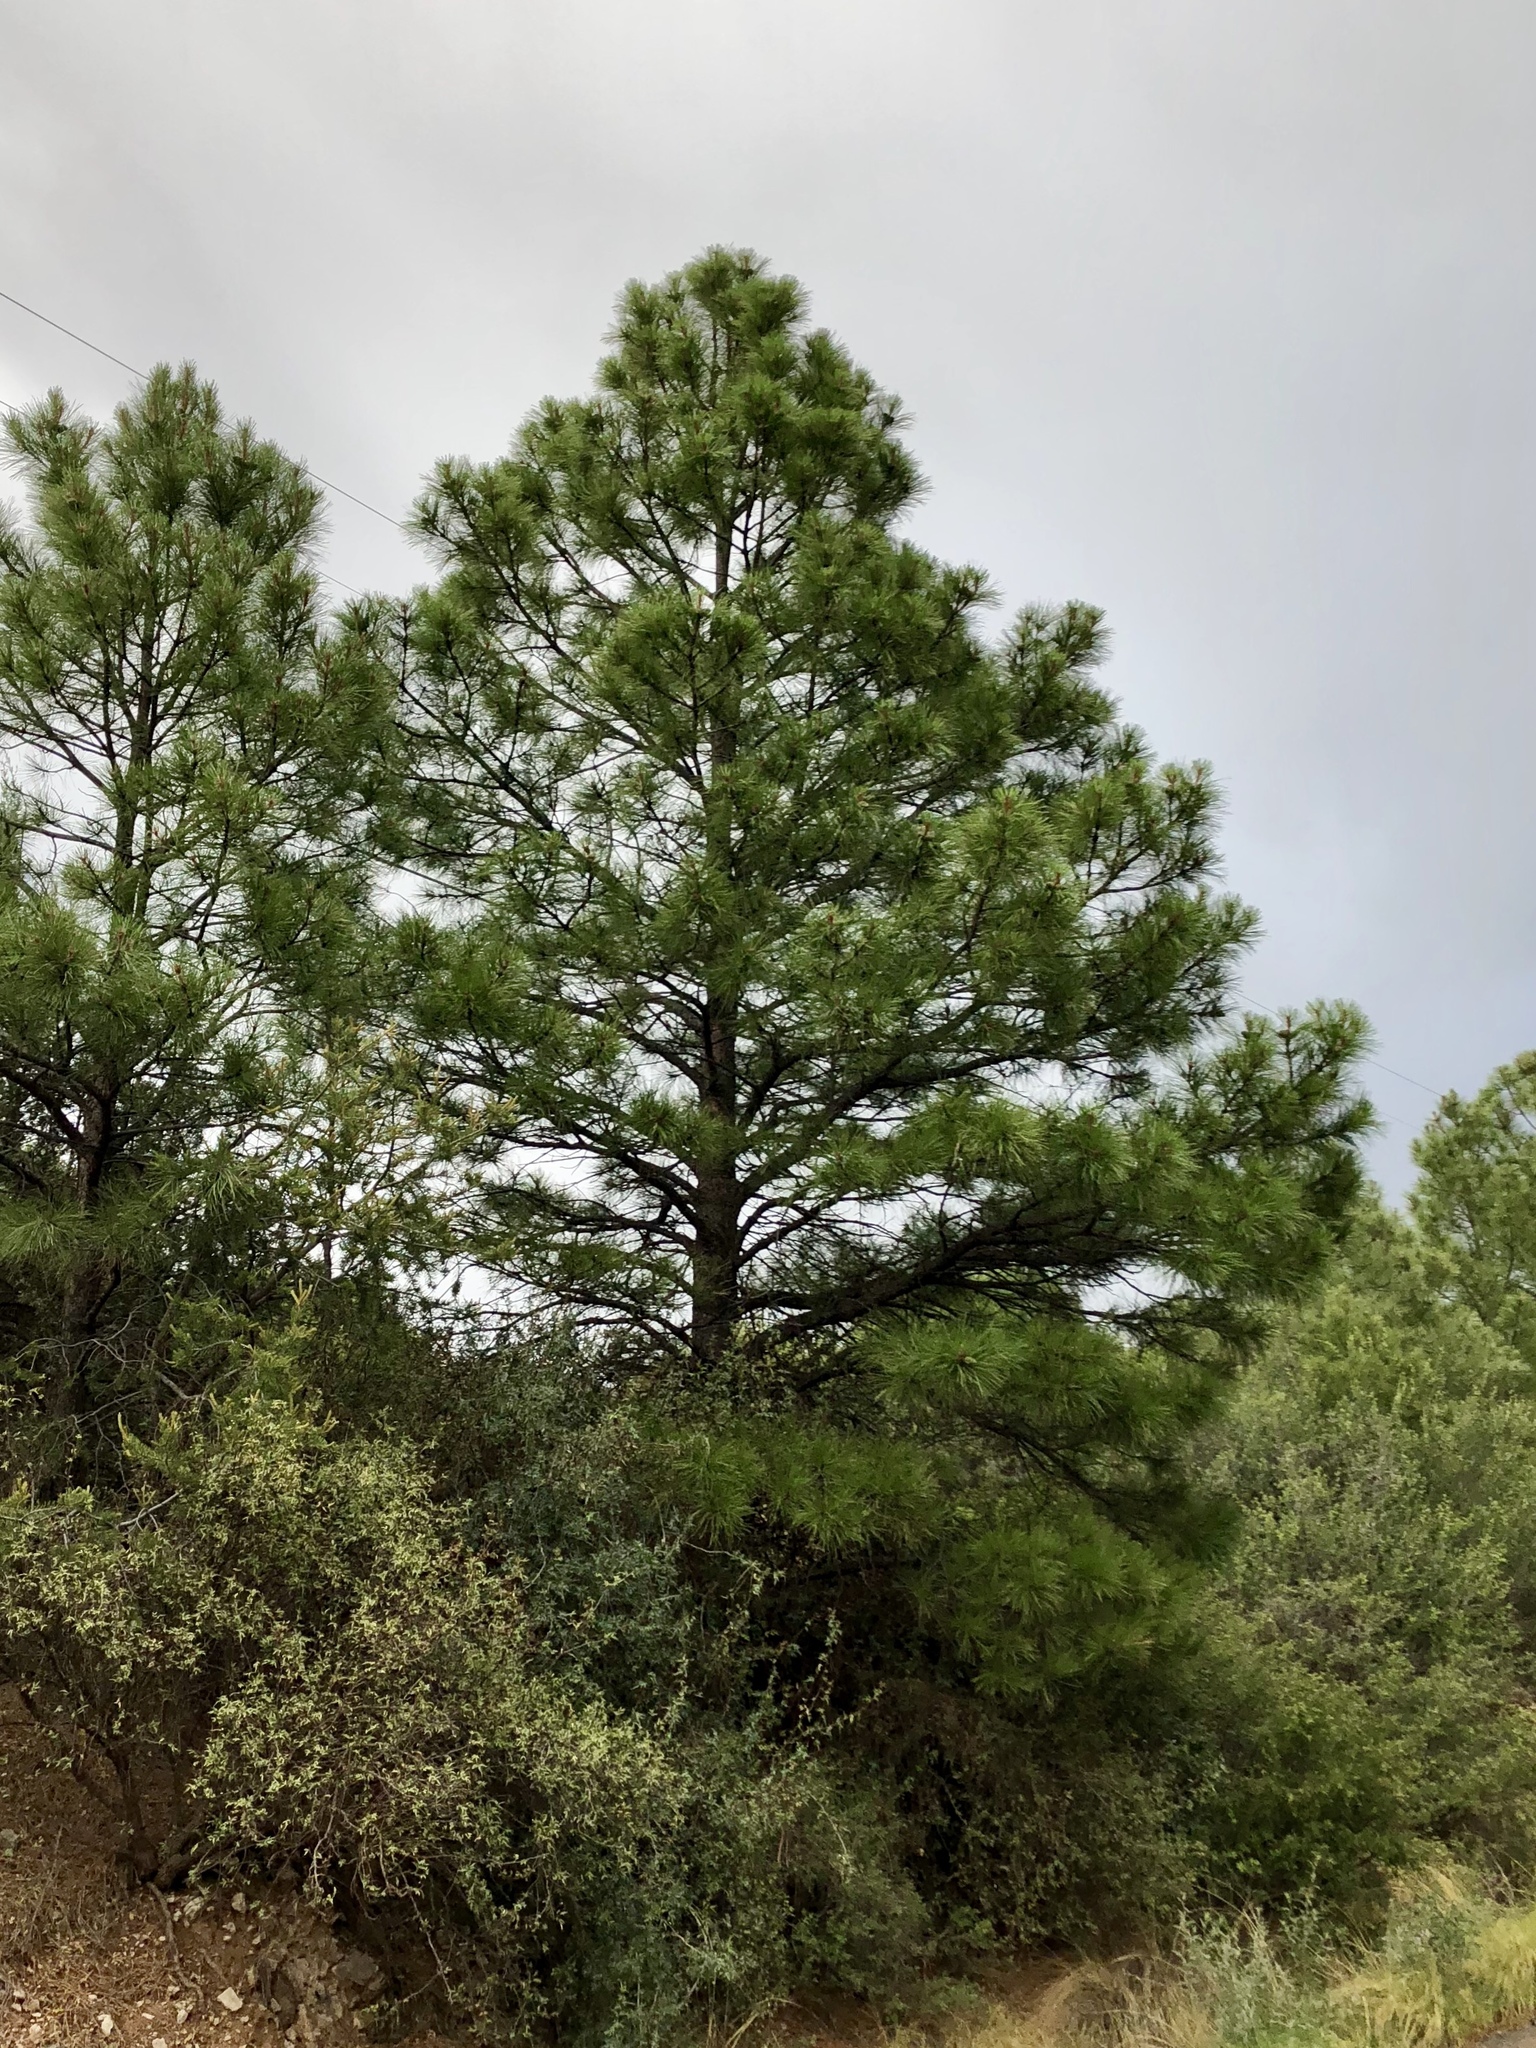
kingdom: Plantae
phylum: Tracheophyta
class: Pinopsida
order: Pinales
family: Pinaceae
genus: Pinus
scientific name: Pinus ponderosa
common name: Western yellow-pine
